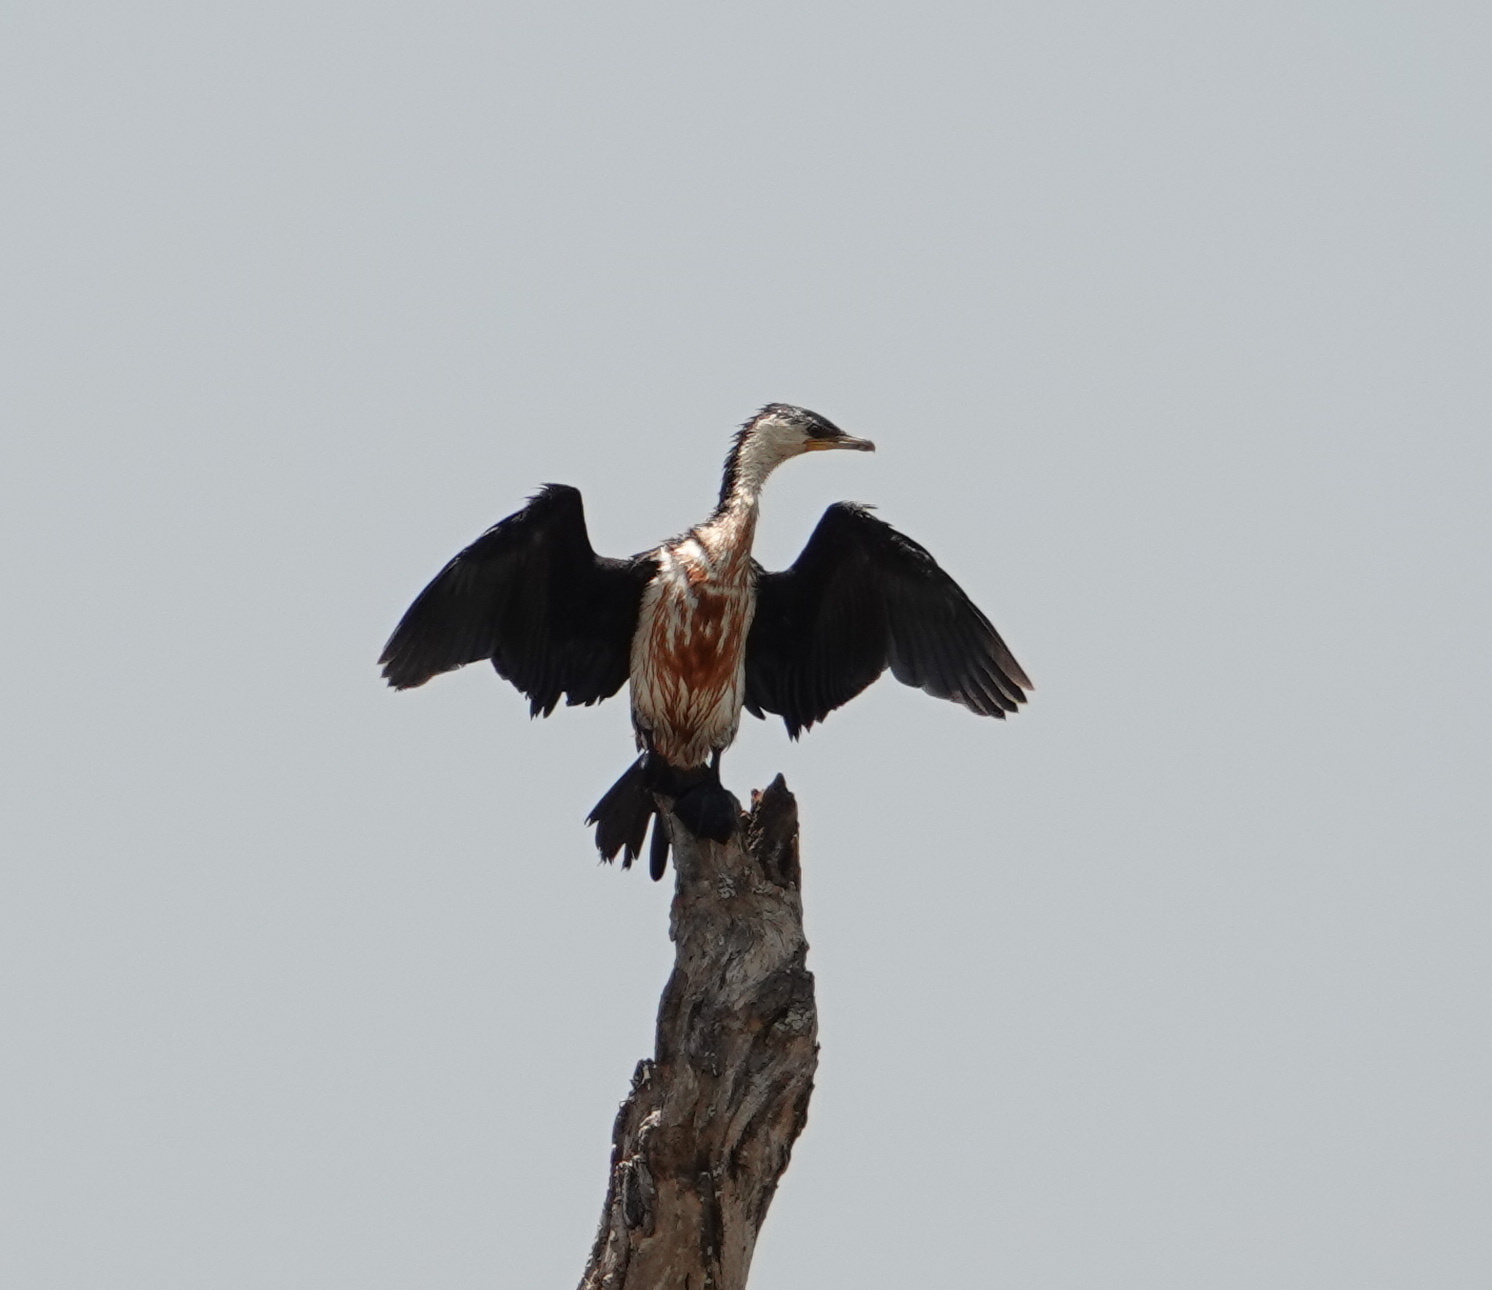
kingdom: Animalia
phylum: Chordata
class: Aves
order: Suliformes
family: Phalacrocoracidae
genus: Microcarbo
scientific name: Microcarbo melanoleucos
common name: Little pied cormorant
